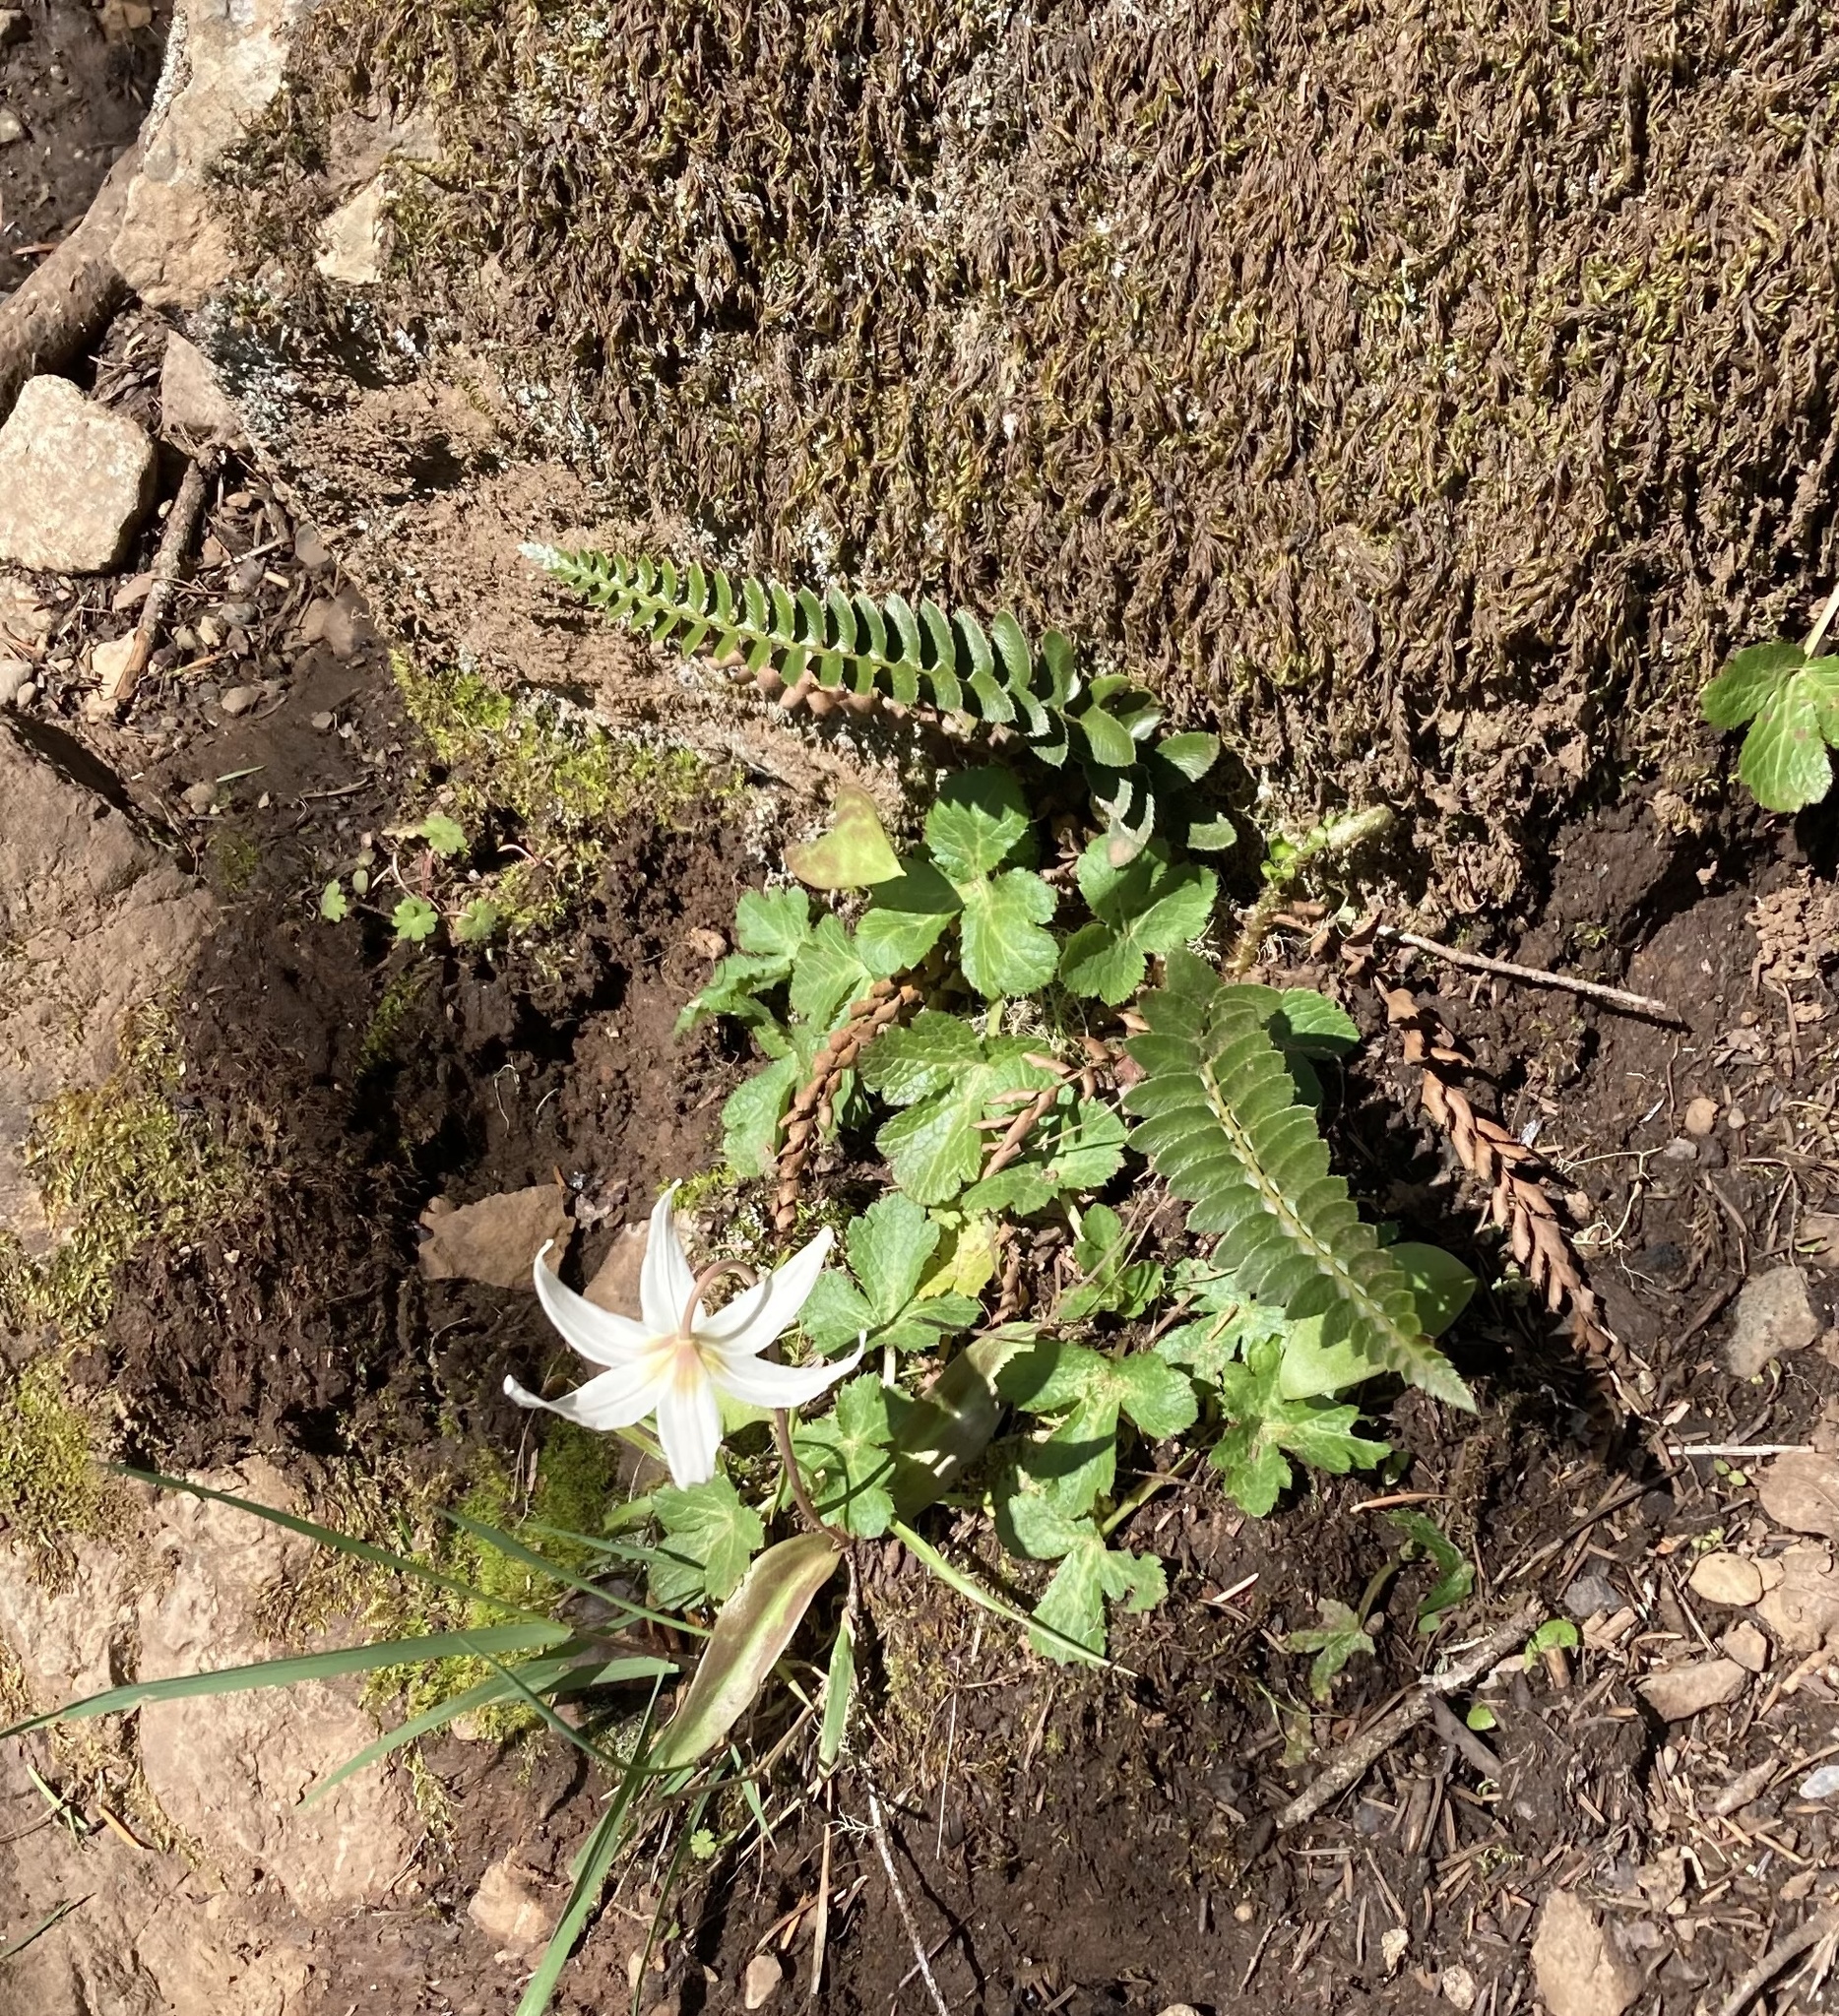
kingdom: Plantae
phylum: Tracheophyta
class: Polypodiopsida
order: Polypodiales
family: Dryopteridaceae
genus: Polystichum
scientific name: Polystichum imbricans
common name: Dwarf western sword fern
